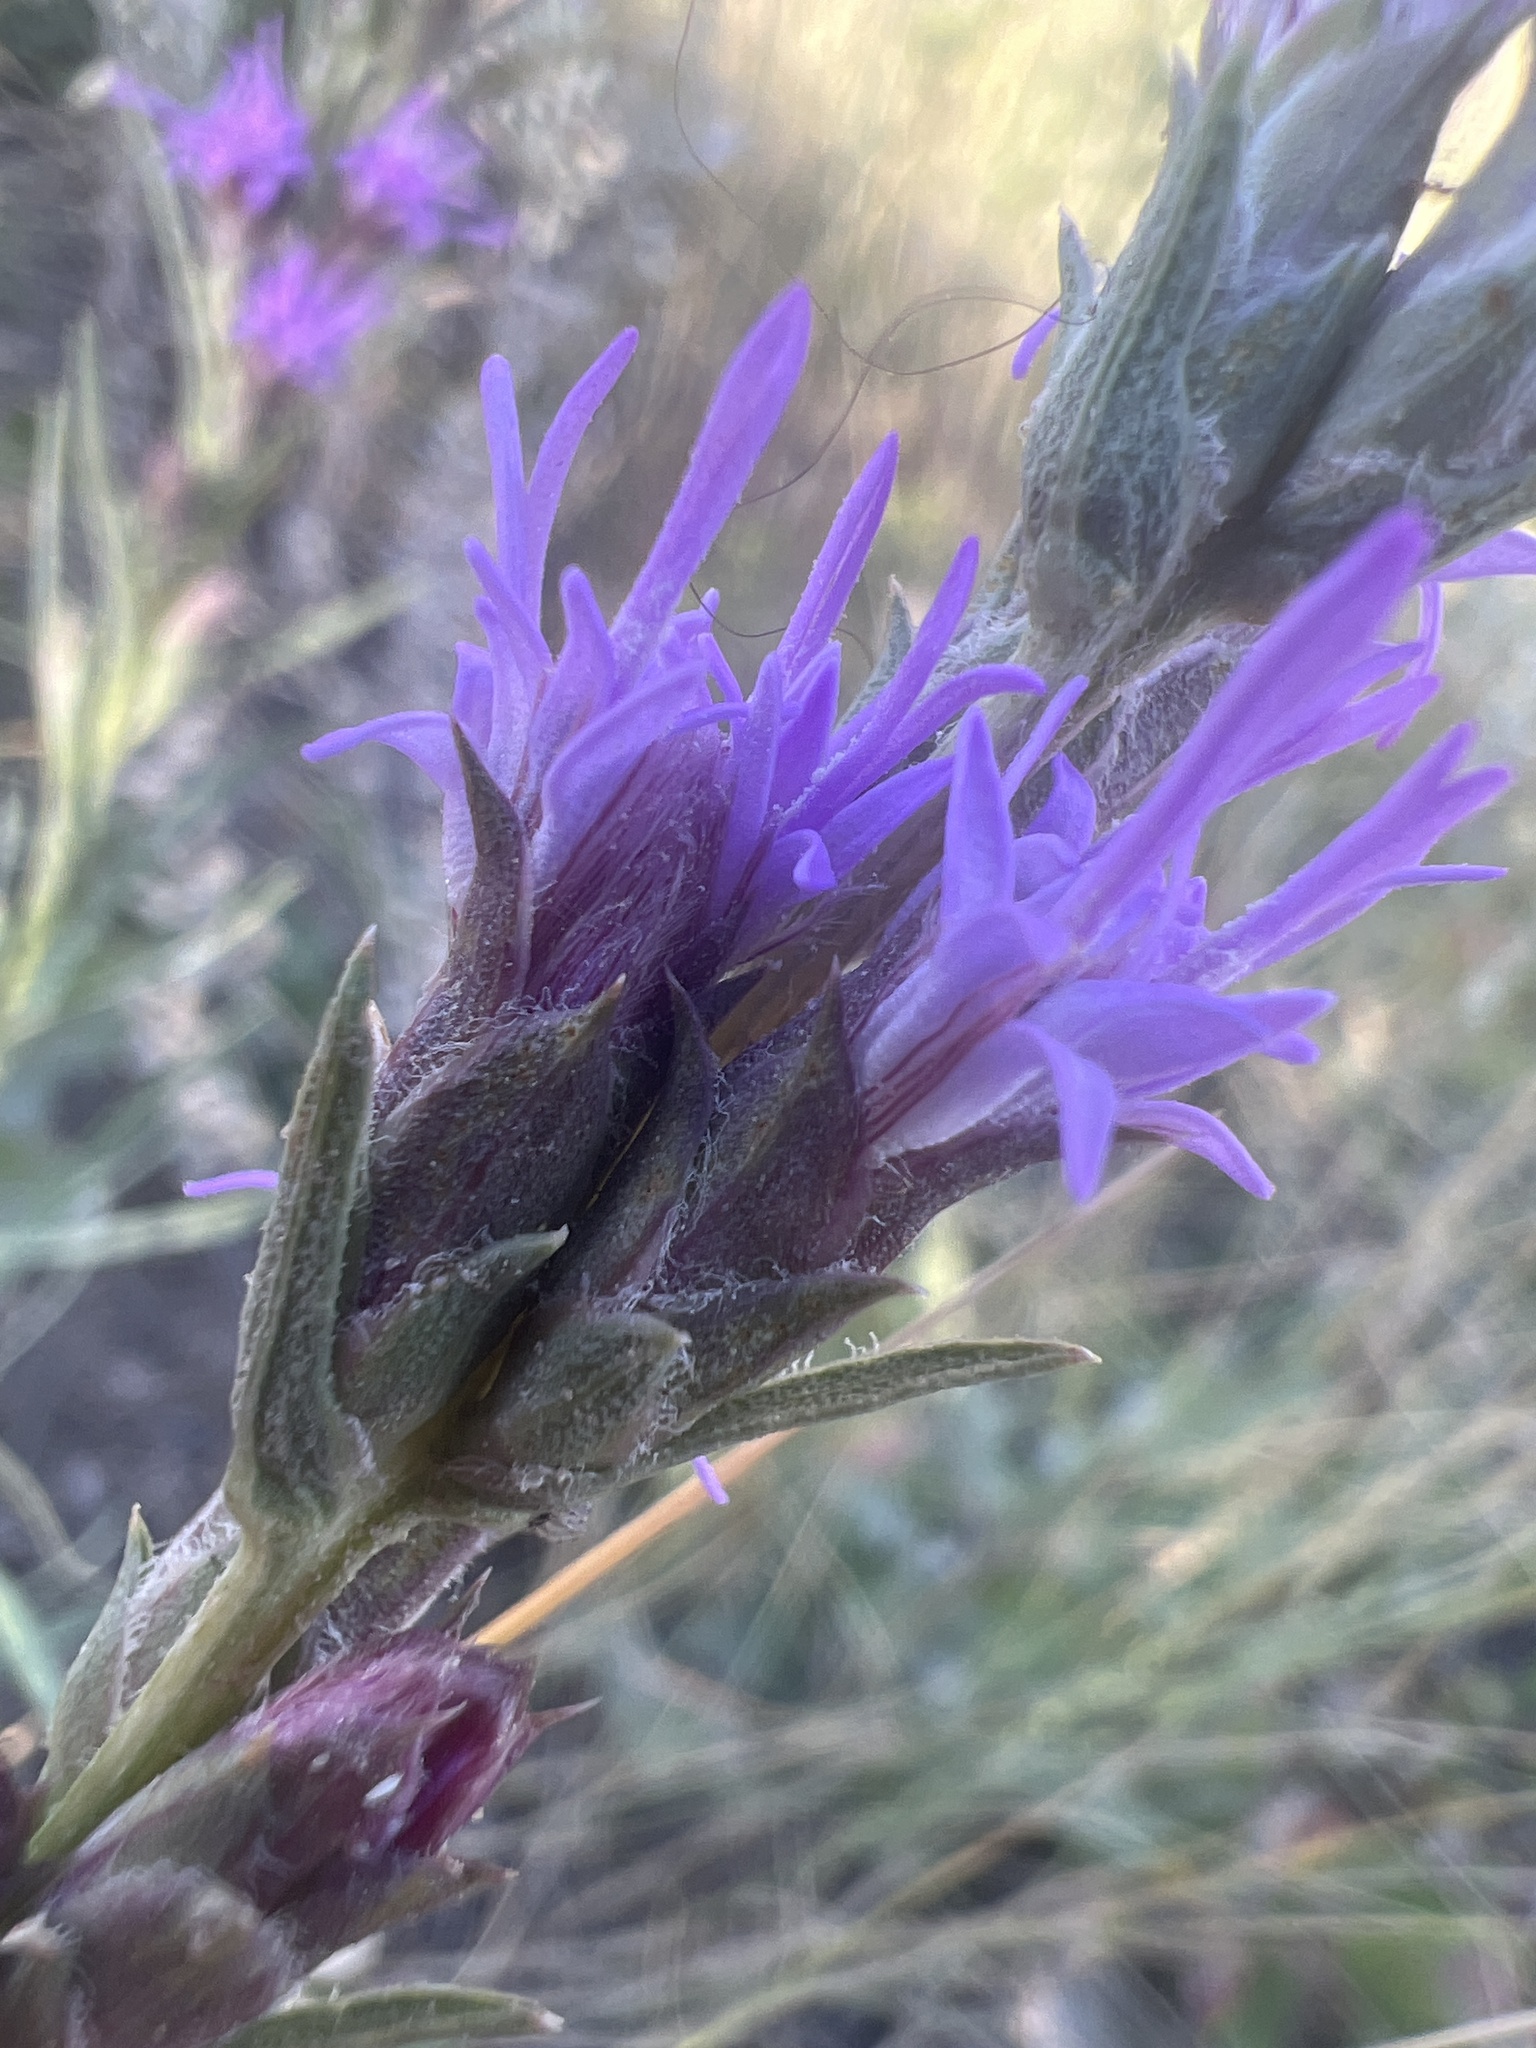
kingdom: Plantae
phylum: Tracheophyta
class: Magnoliopsida
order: Asterales
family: Asteraceae
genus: Liatris
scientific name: Liatris punctata
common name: Dotted gayfeather
